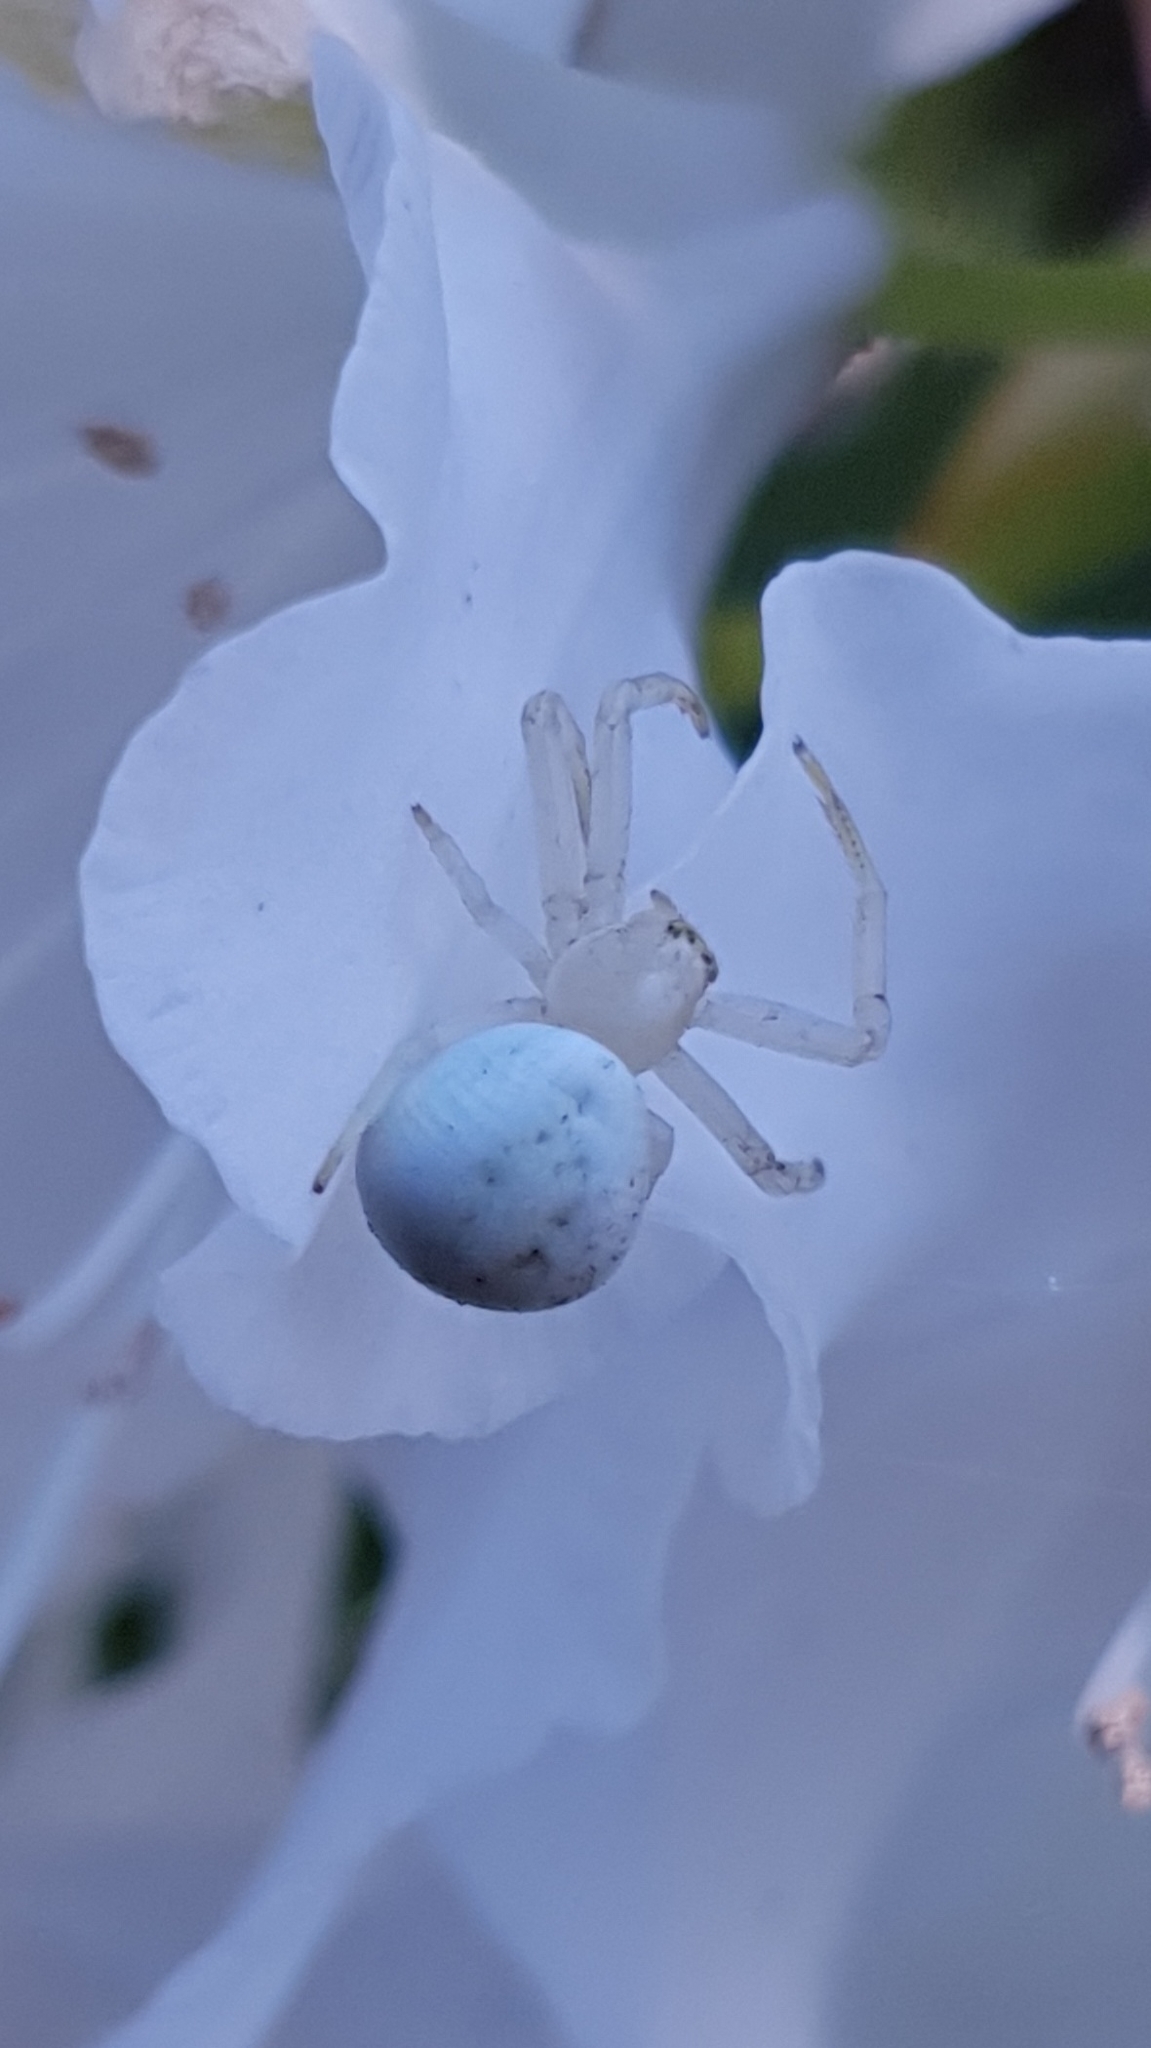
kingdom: Animalia
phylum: Arthropoda
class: Arachnida
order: Araneae
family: Thomisidae
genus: Misumena
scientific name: Misumena vatia
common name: Goldenrod crab spider
